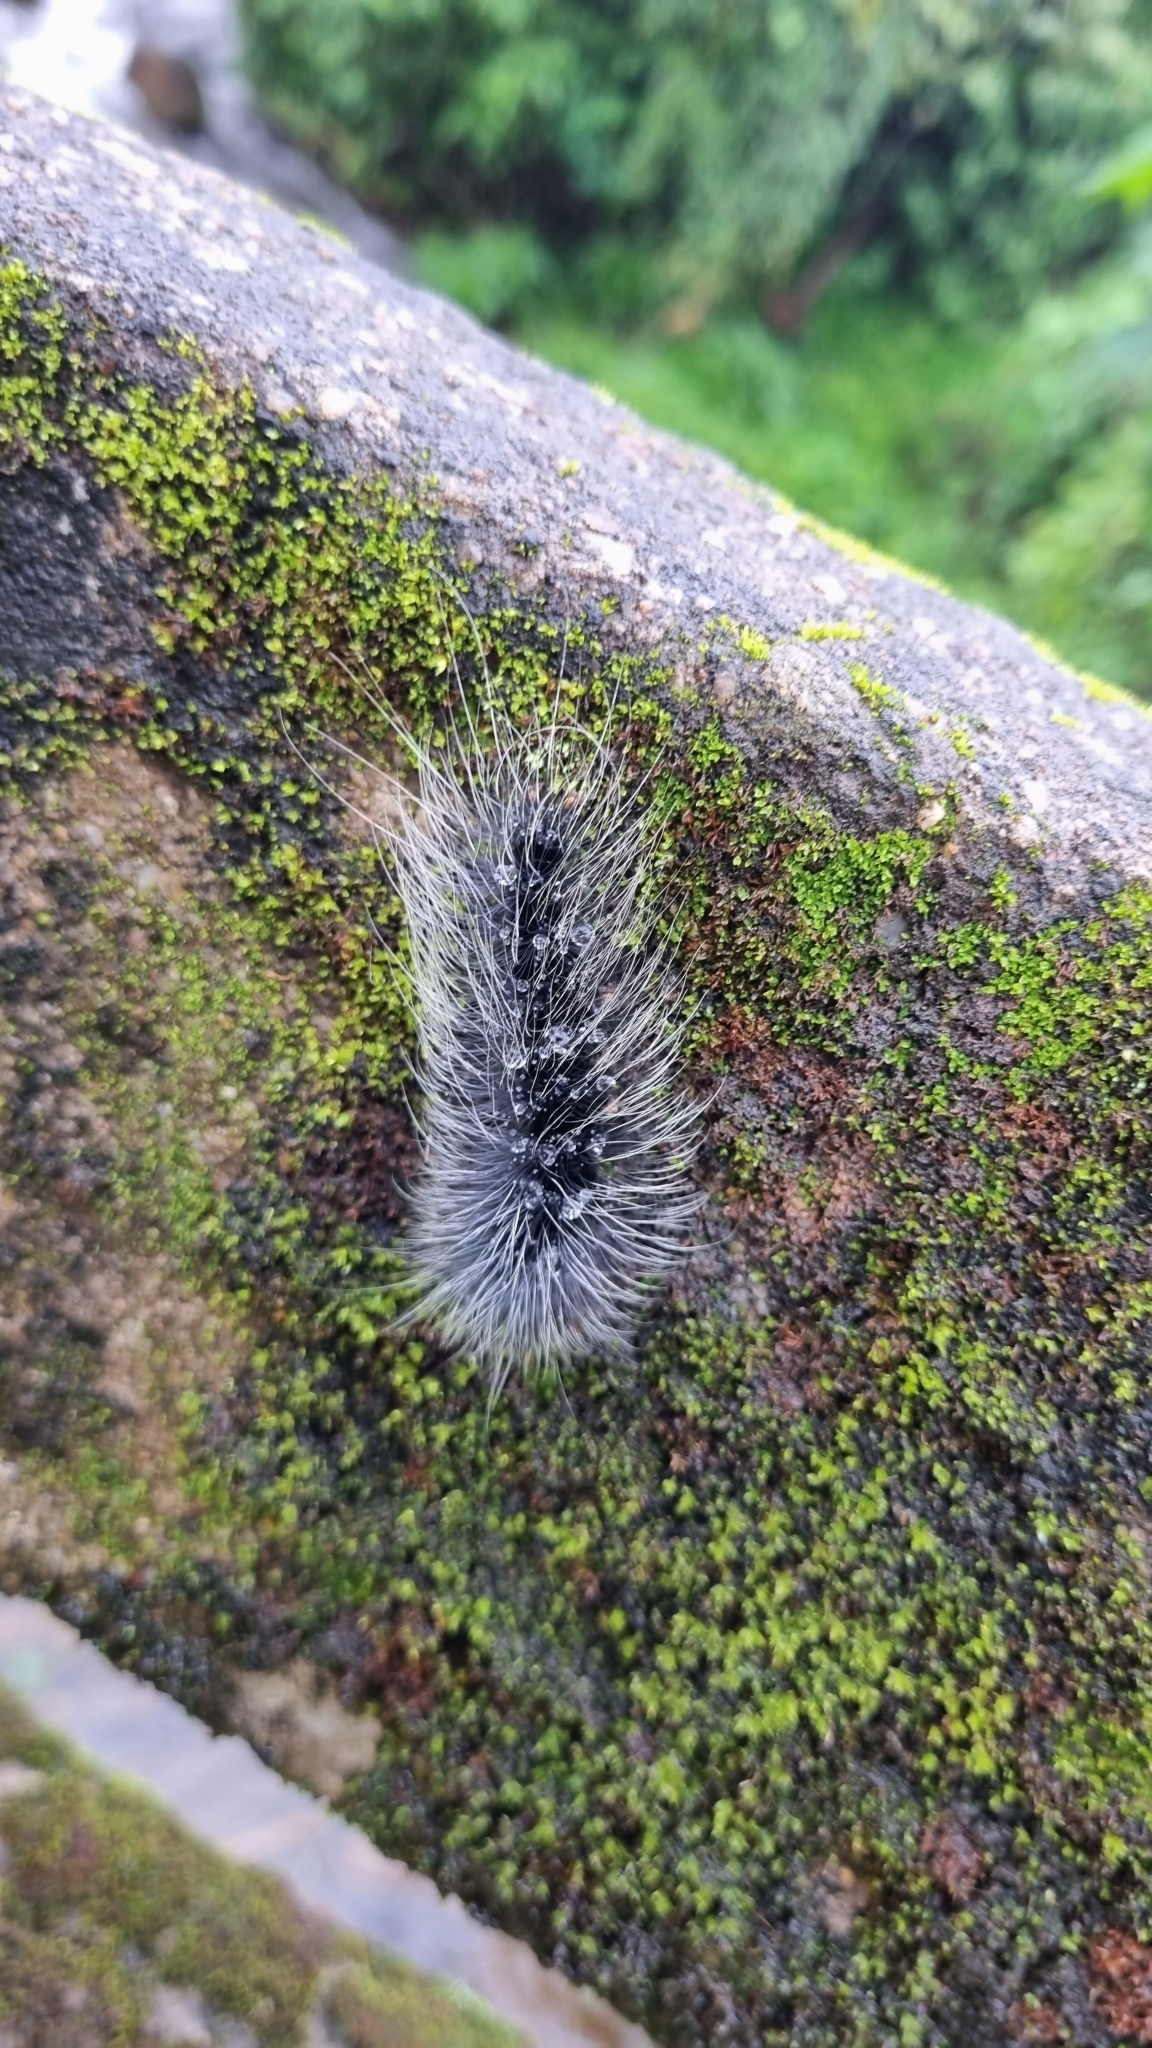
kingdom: Animalia
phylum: Arthropoda
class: Insecta
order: Lepidoptera
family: Erebidae
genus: Macrobrochis
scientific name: Macrobrochis gigas
